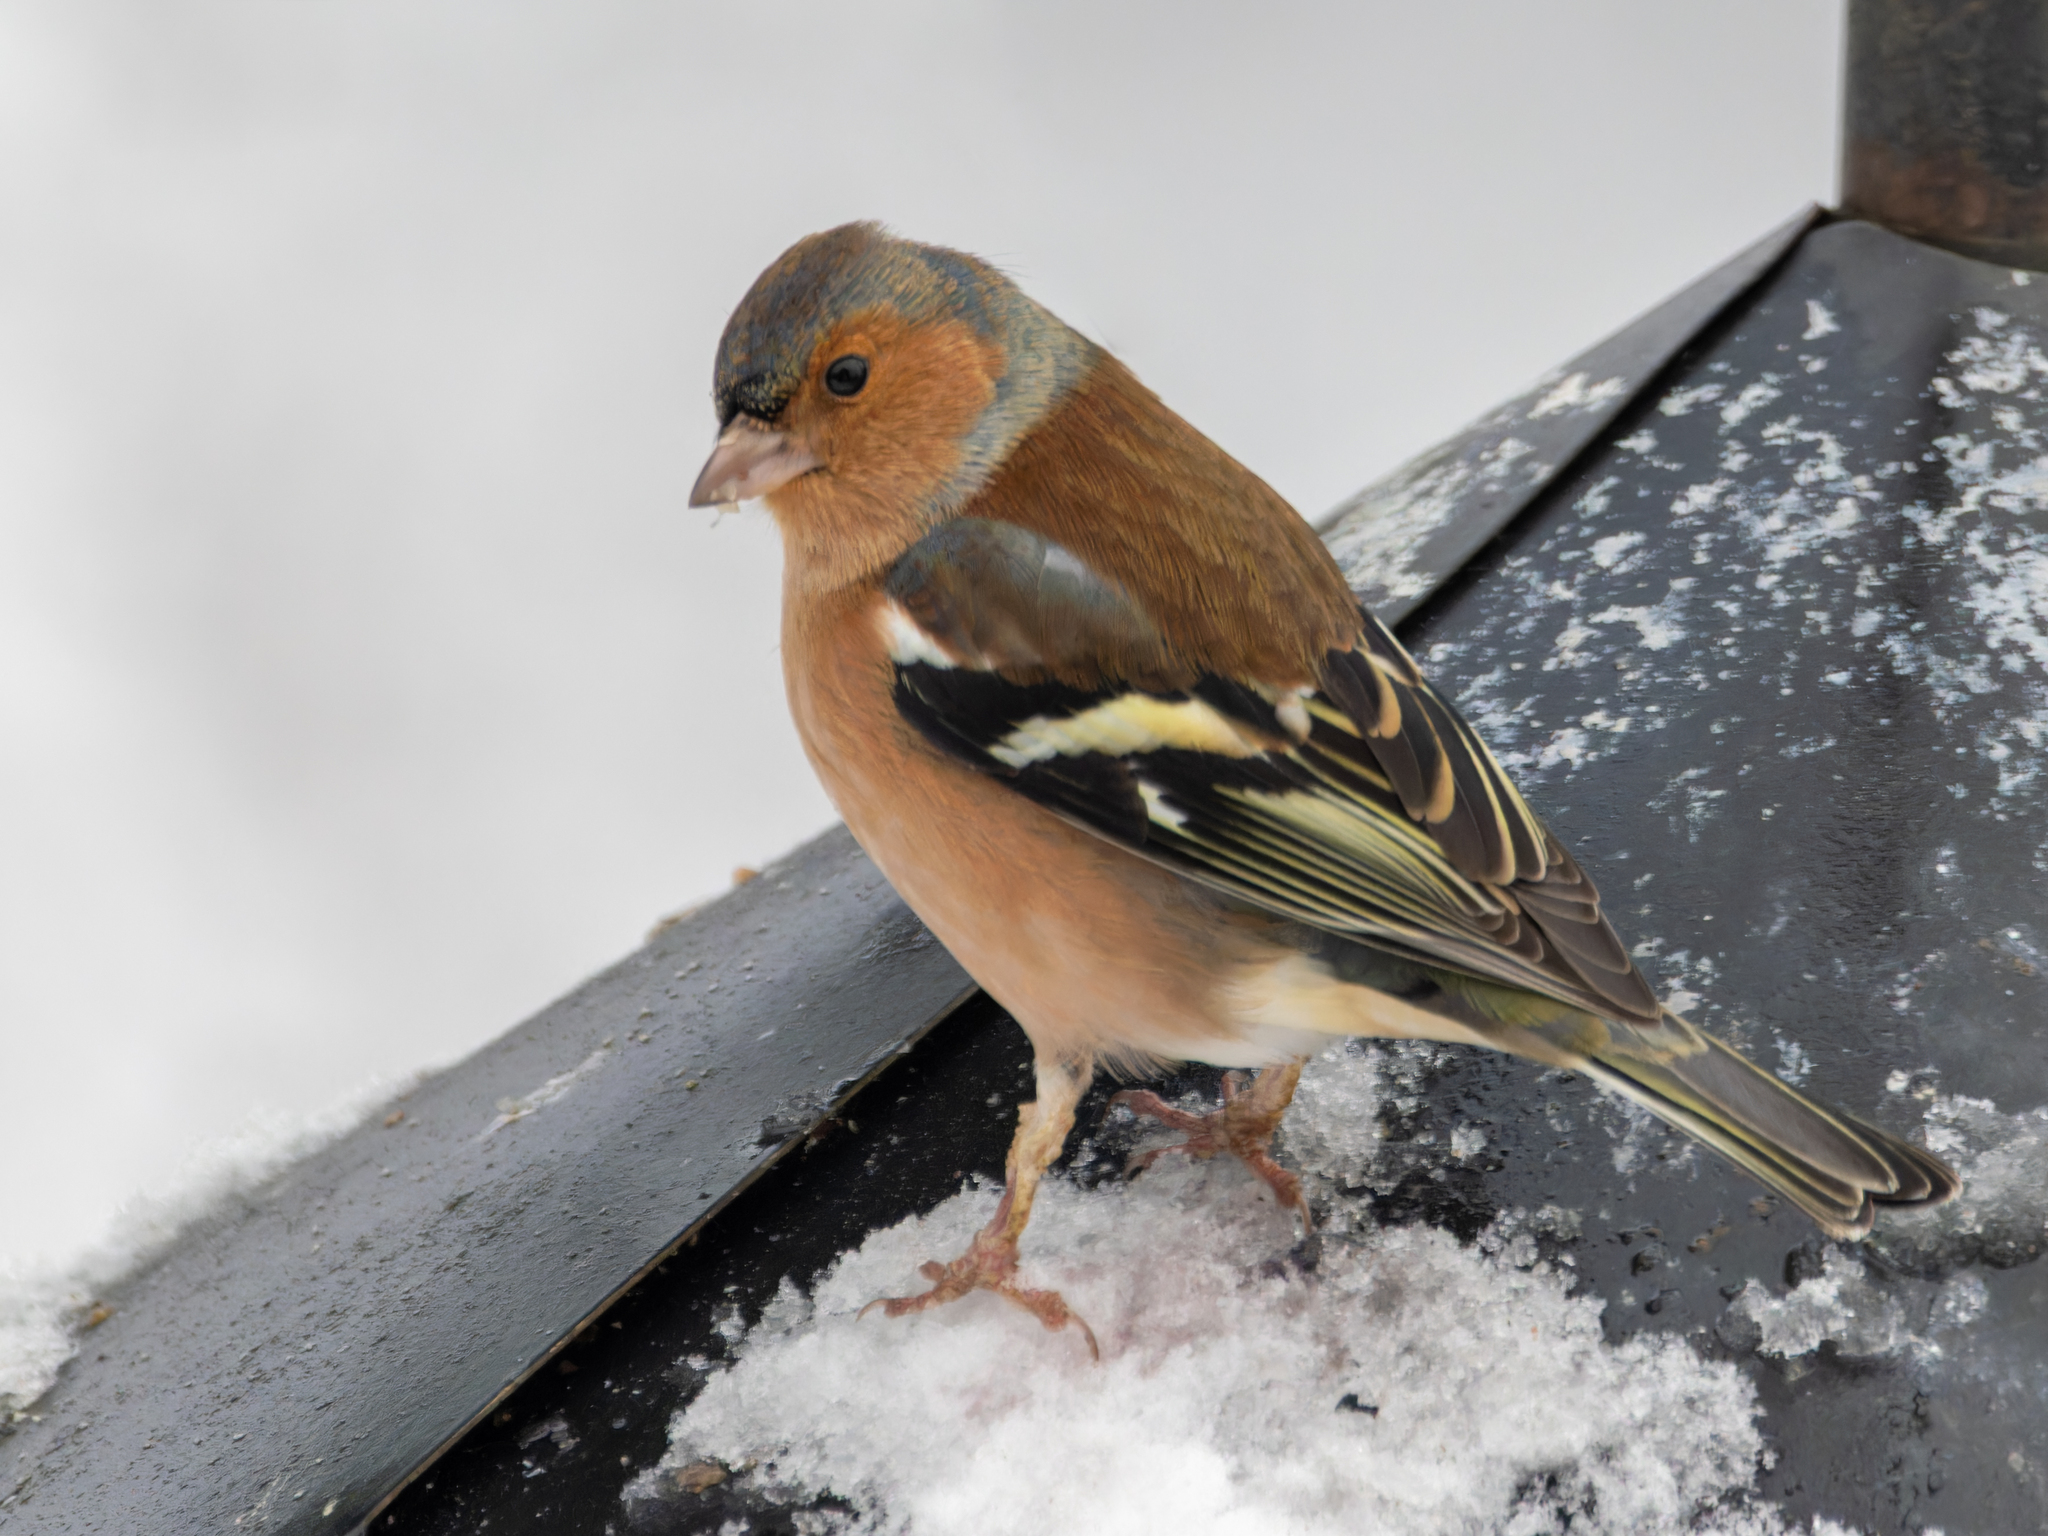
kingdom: Animalia
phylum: Chordata
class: Aves
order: Passeriformes
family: Fringillidae
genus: Fringilla
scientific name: Fringilla coelebs
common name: Common chaffinch
